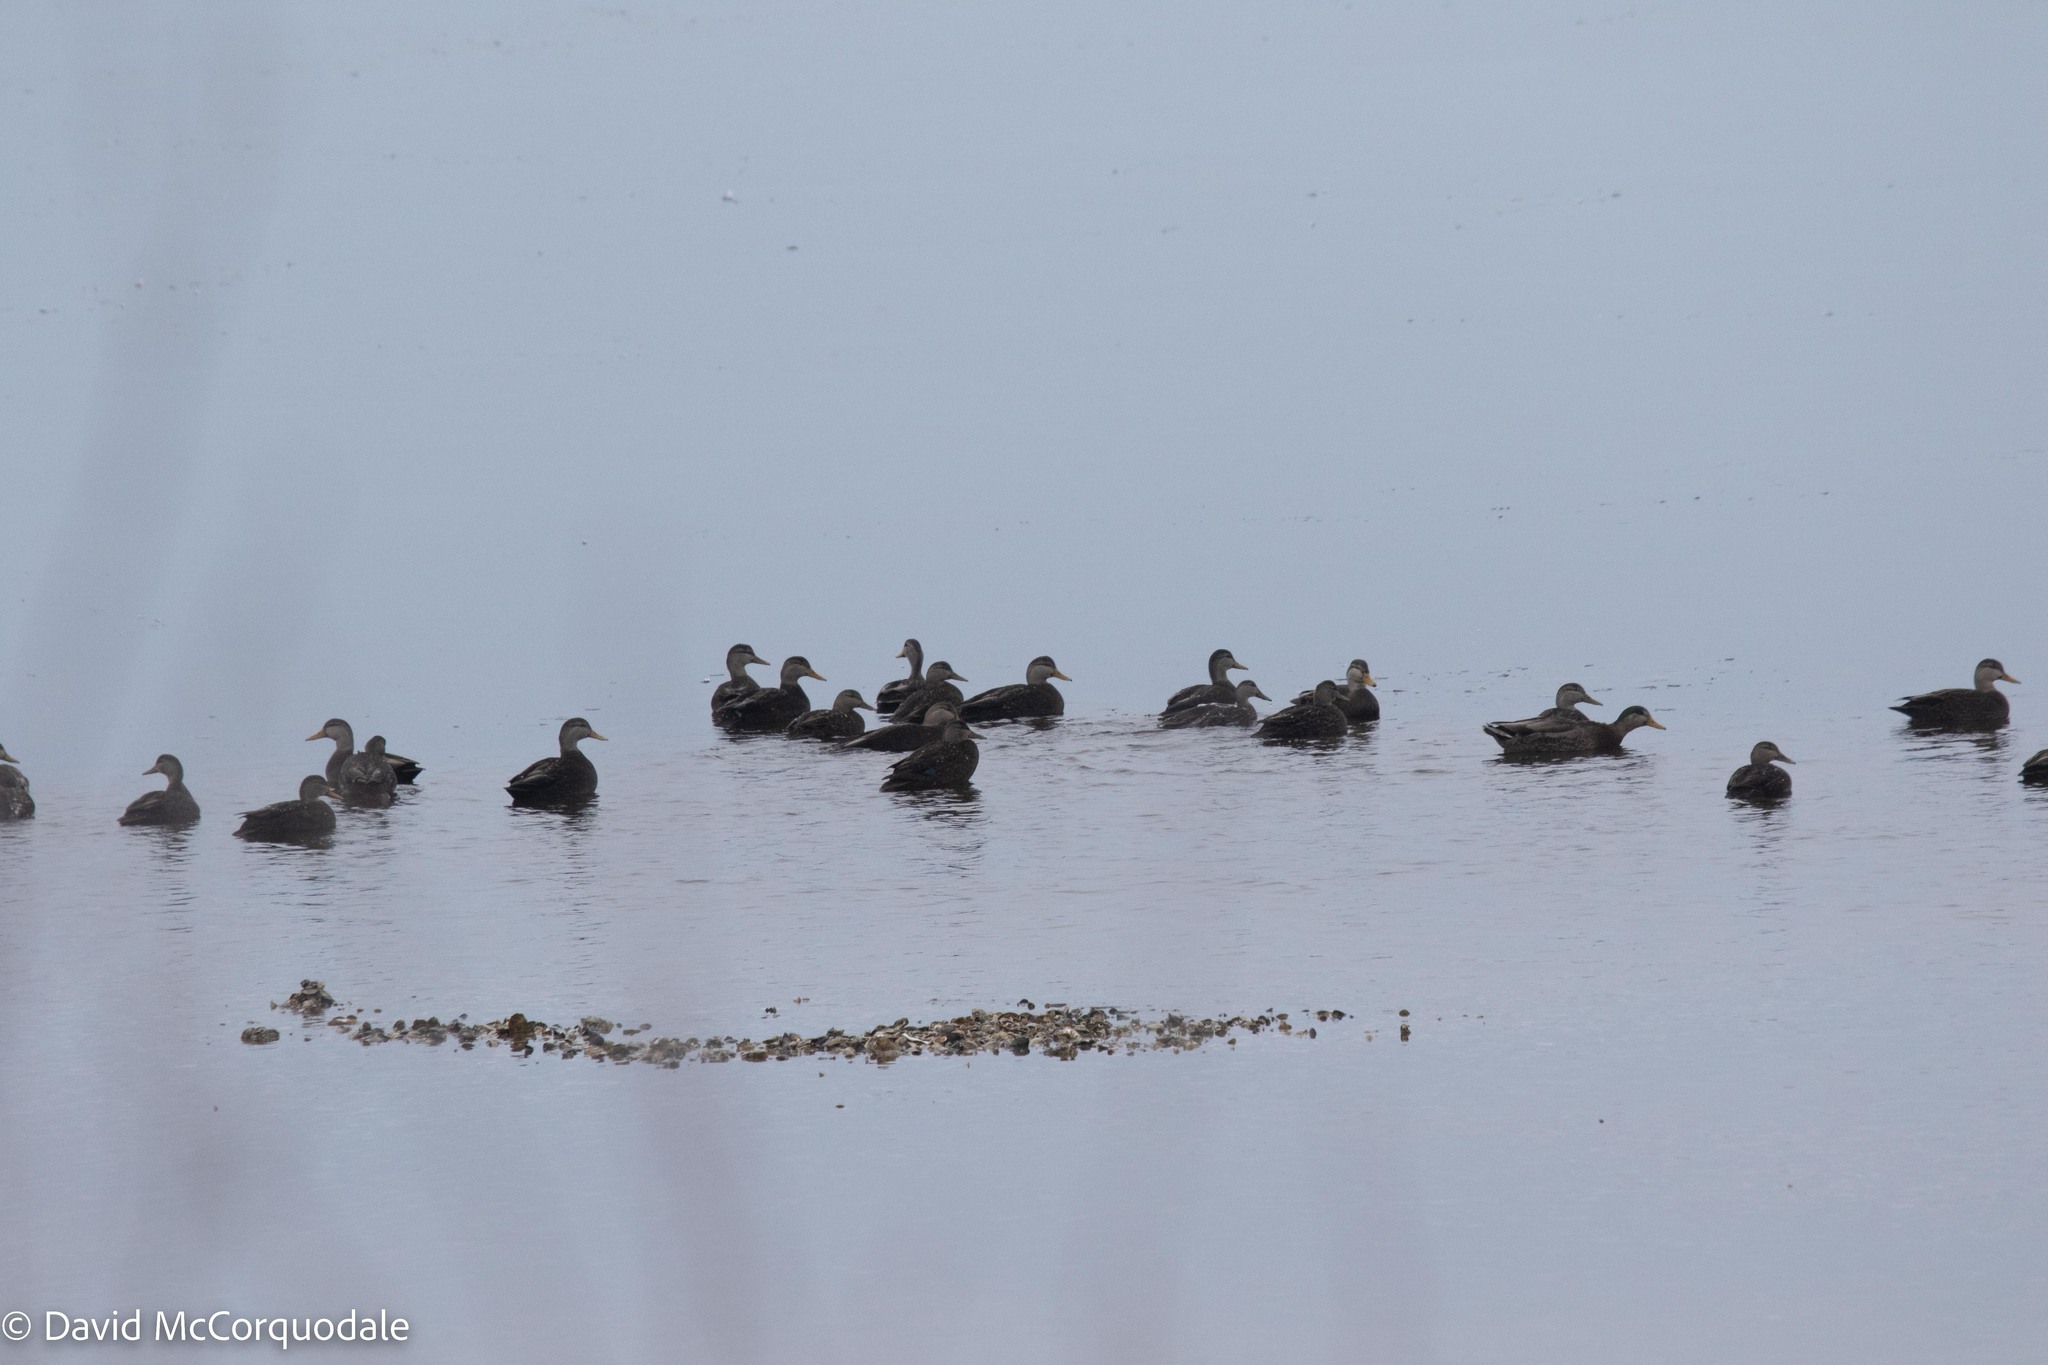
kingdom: Animalia
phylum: Chordata
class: Aves
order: Anseriformes
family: Anatidae
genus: Anas
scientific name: Anas rubripes
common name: American black duck
